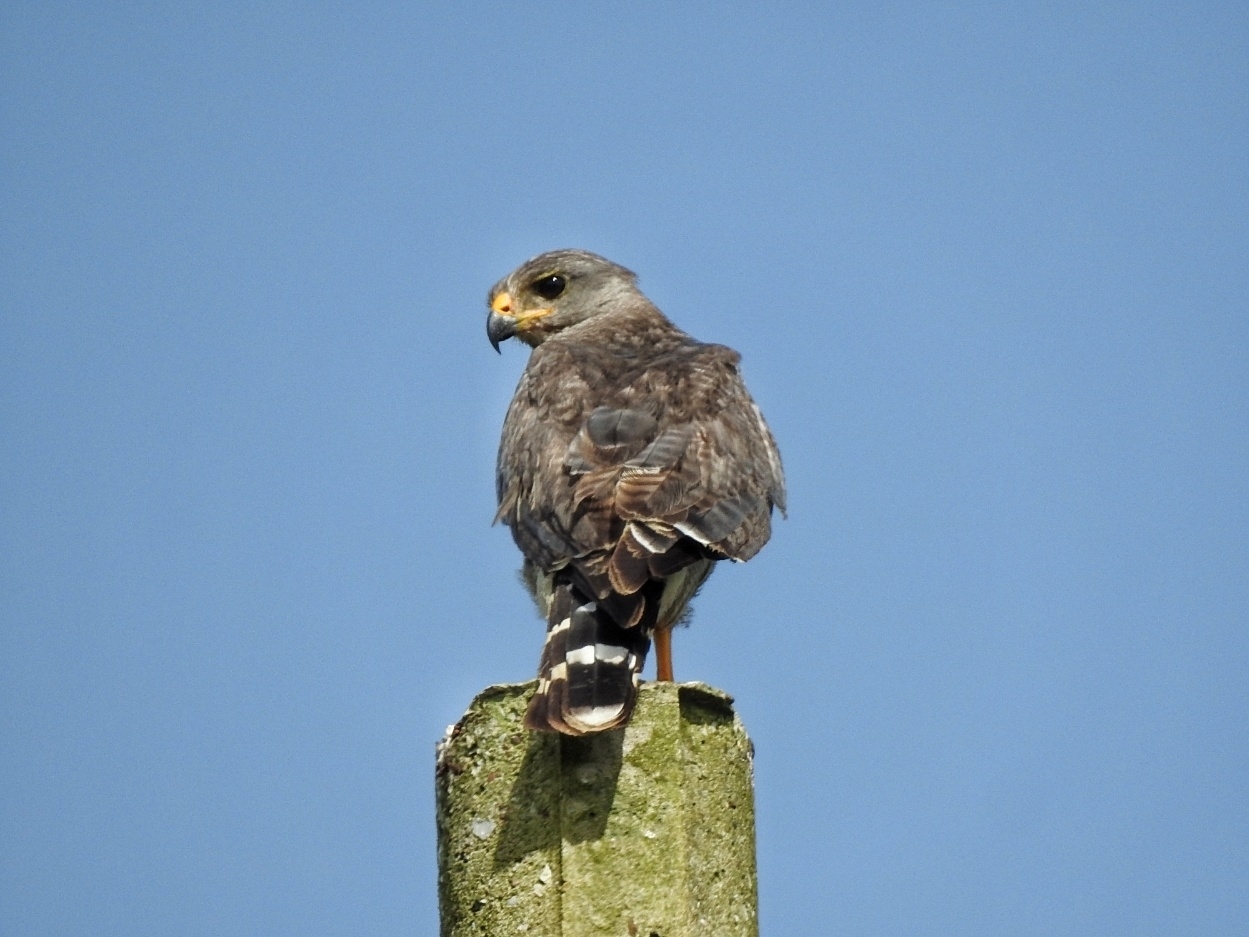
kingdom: Animalia
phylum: Chordata
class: Aves
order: Accipitriformes
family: Accipitridae
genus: Buteo
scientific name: Buteo nitidus
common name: Grey-lined hawk
